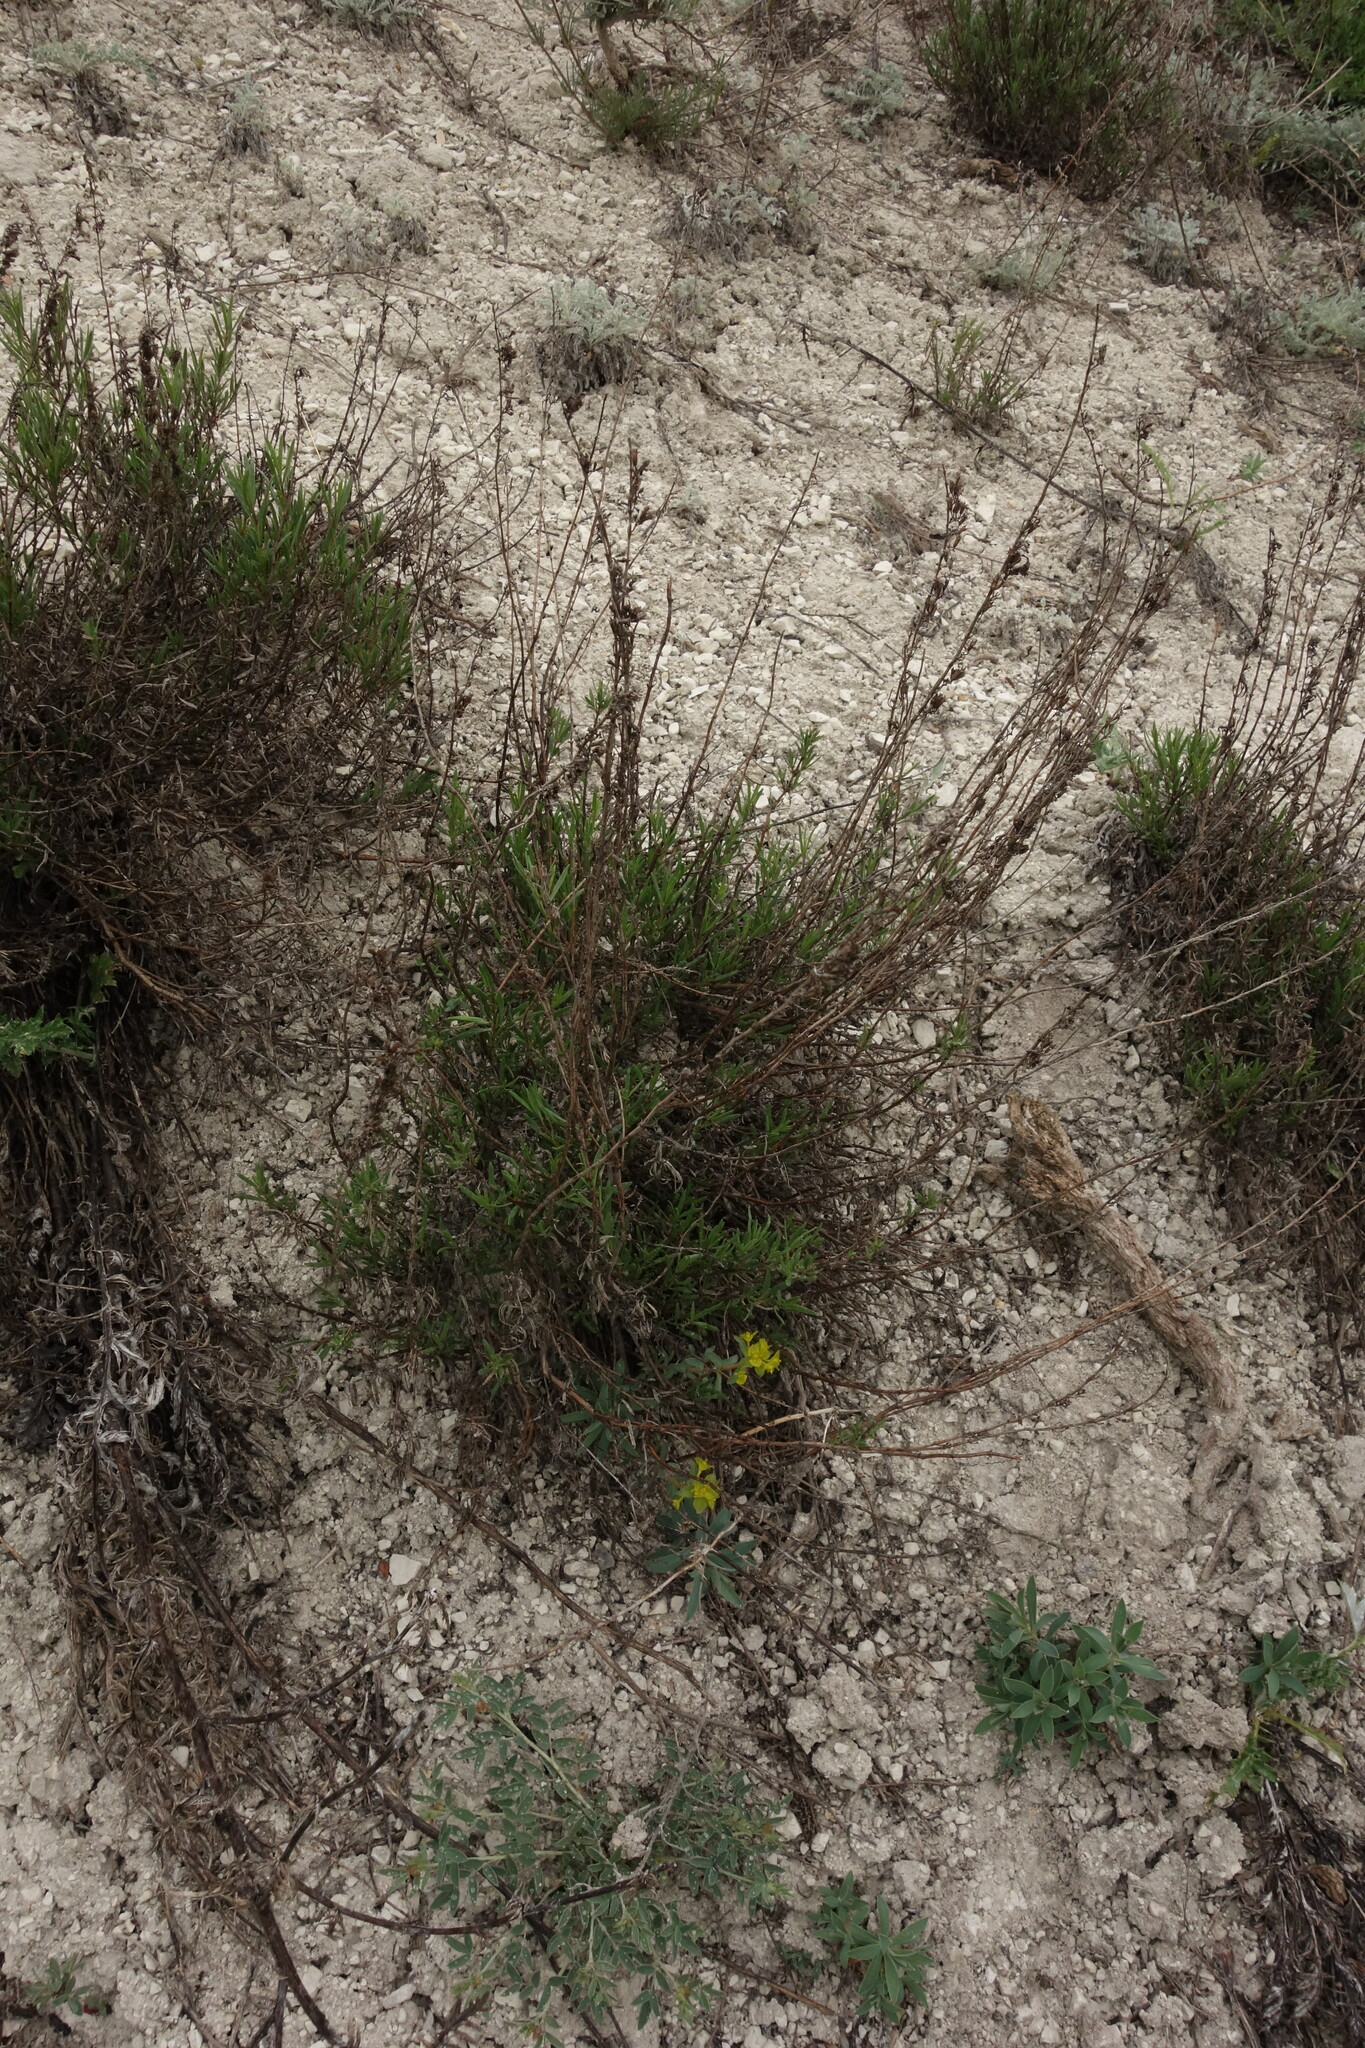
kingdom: Plantae
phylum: Tracheophyta
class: Magnoliopsida
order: Lamiales
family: Lamiaceae
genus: Hyssopus
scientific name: Hyssopus officinalis
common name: Hyssop
